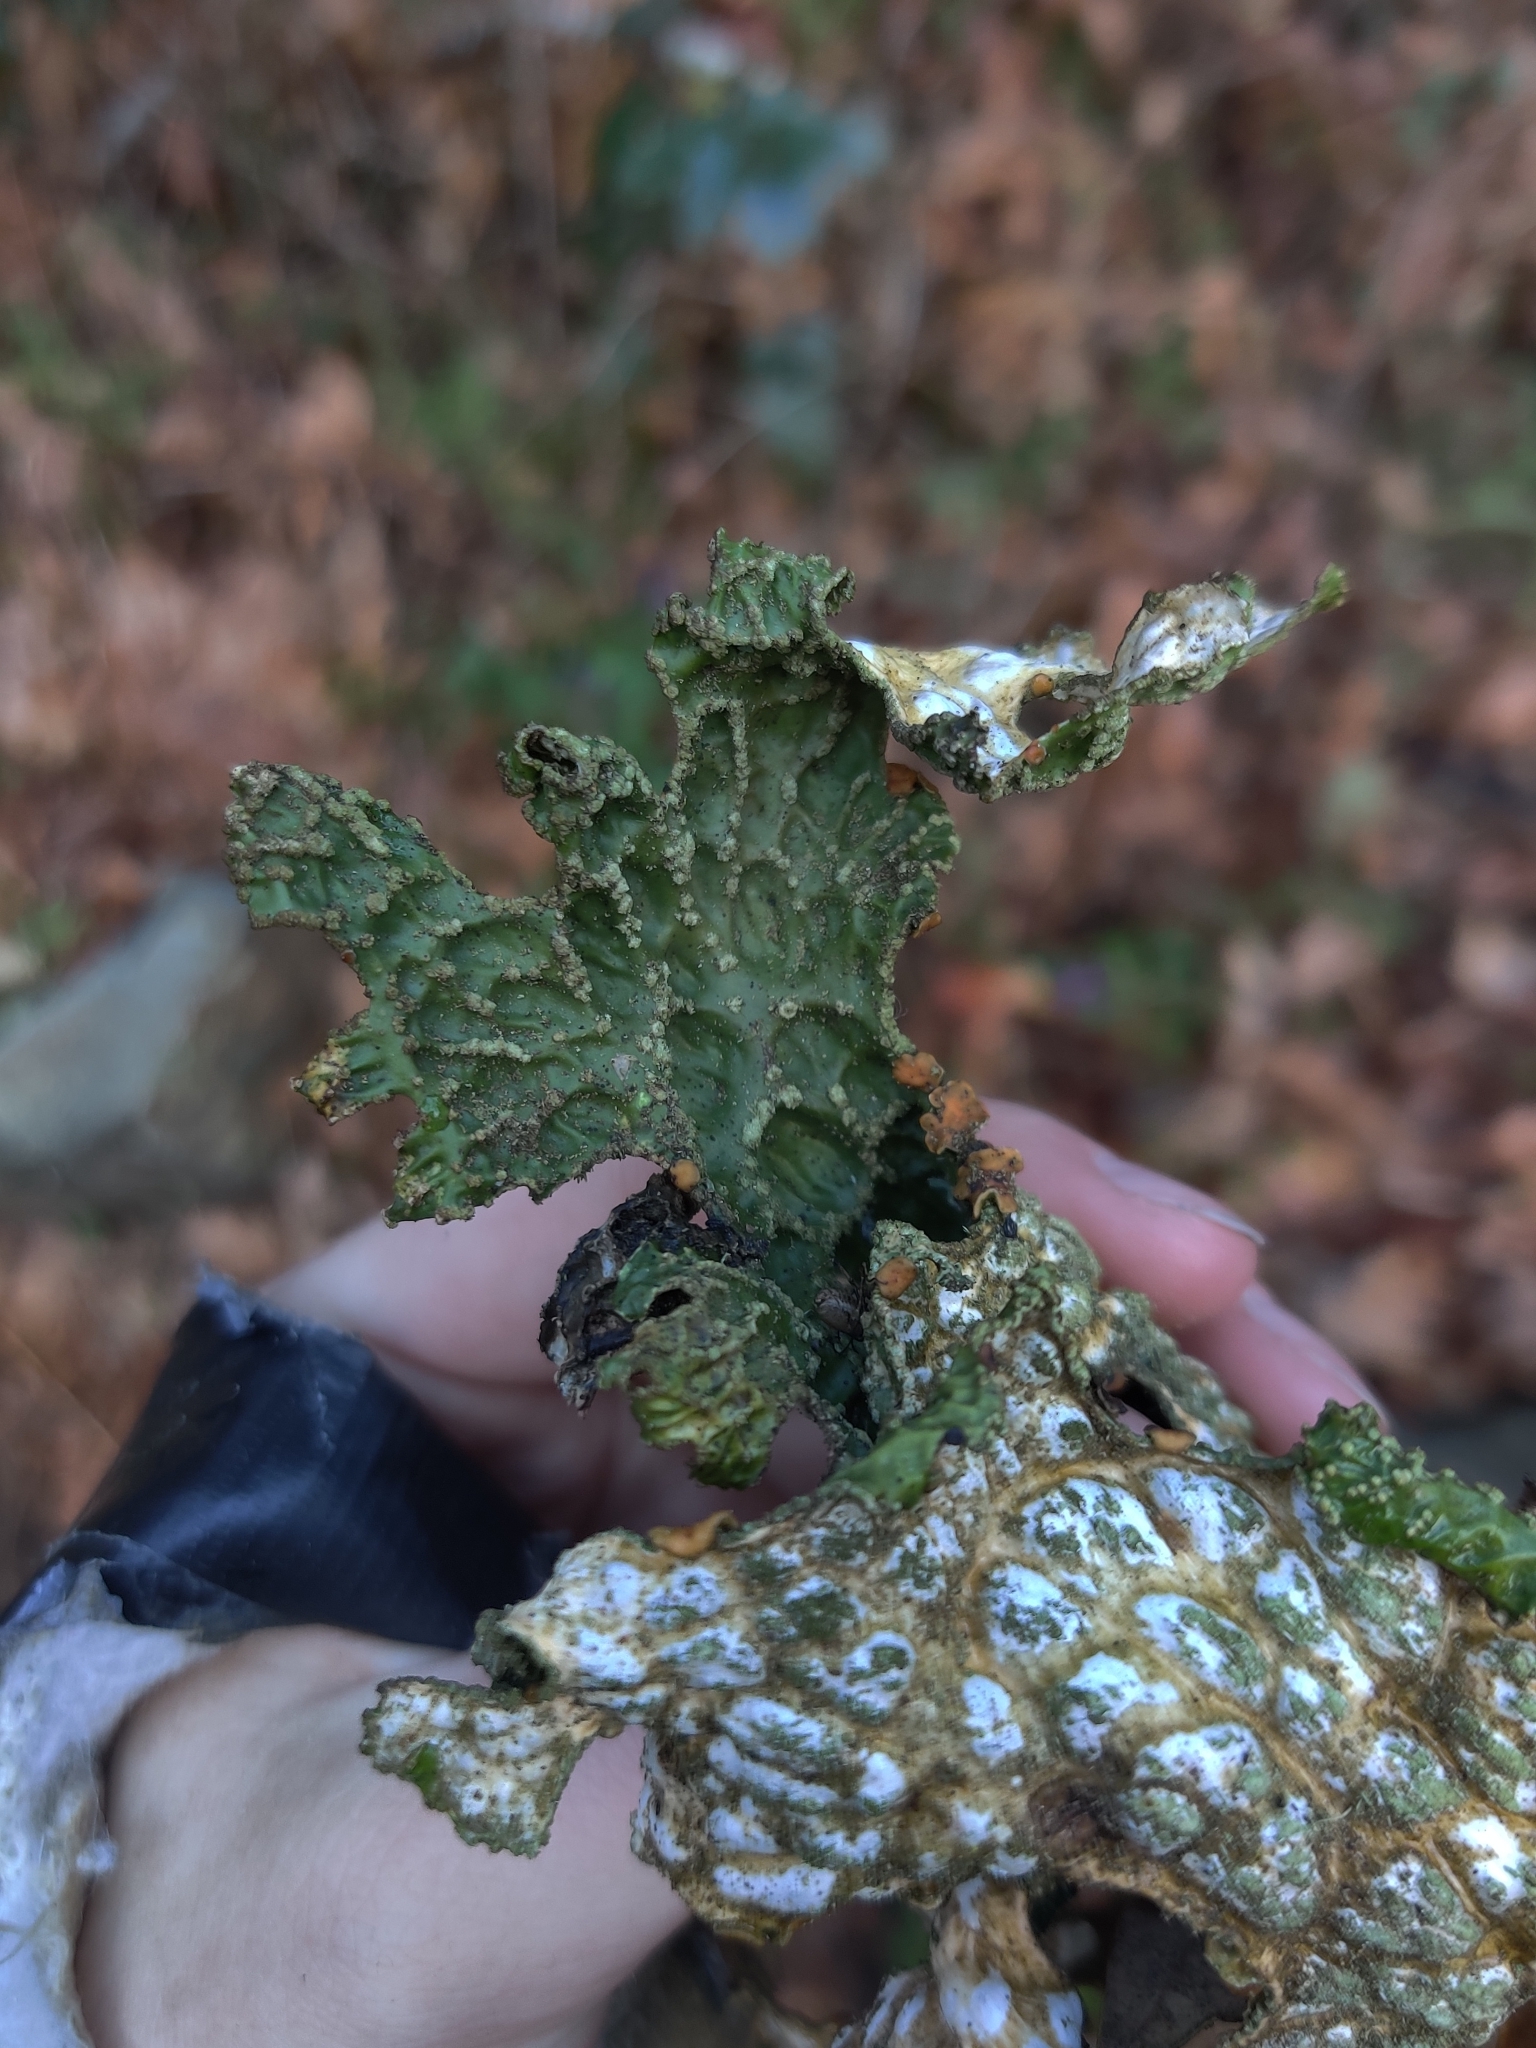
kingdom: Fungi
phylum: Ascomycota
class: Lecanoromycetes
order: Peltigerales
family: Lobariaceae
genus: Lobaria
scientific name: Lobaria pulmonaria
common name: Lungwort
